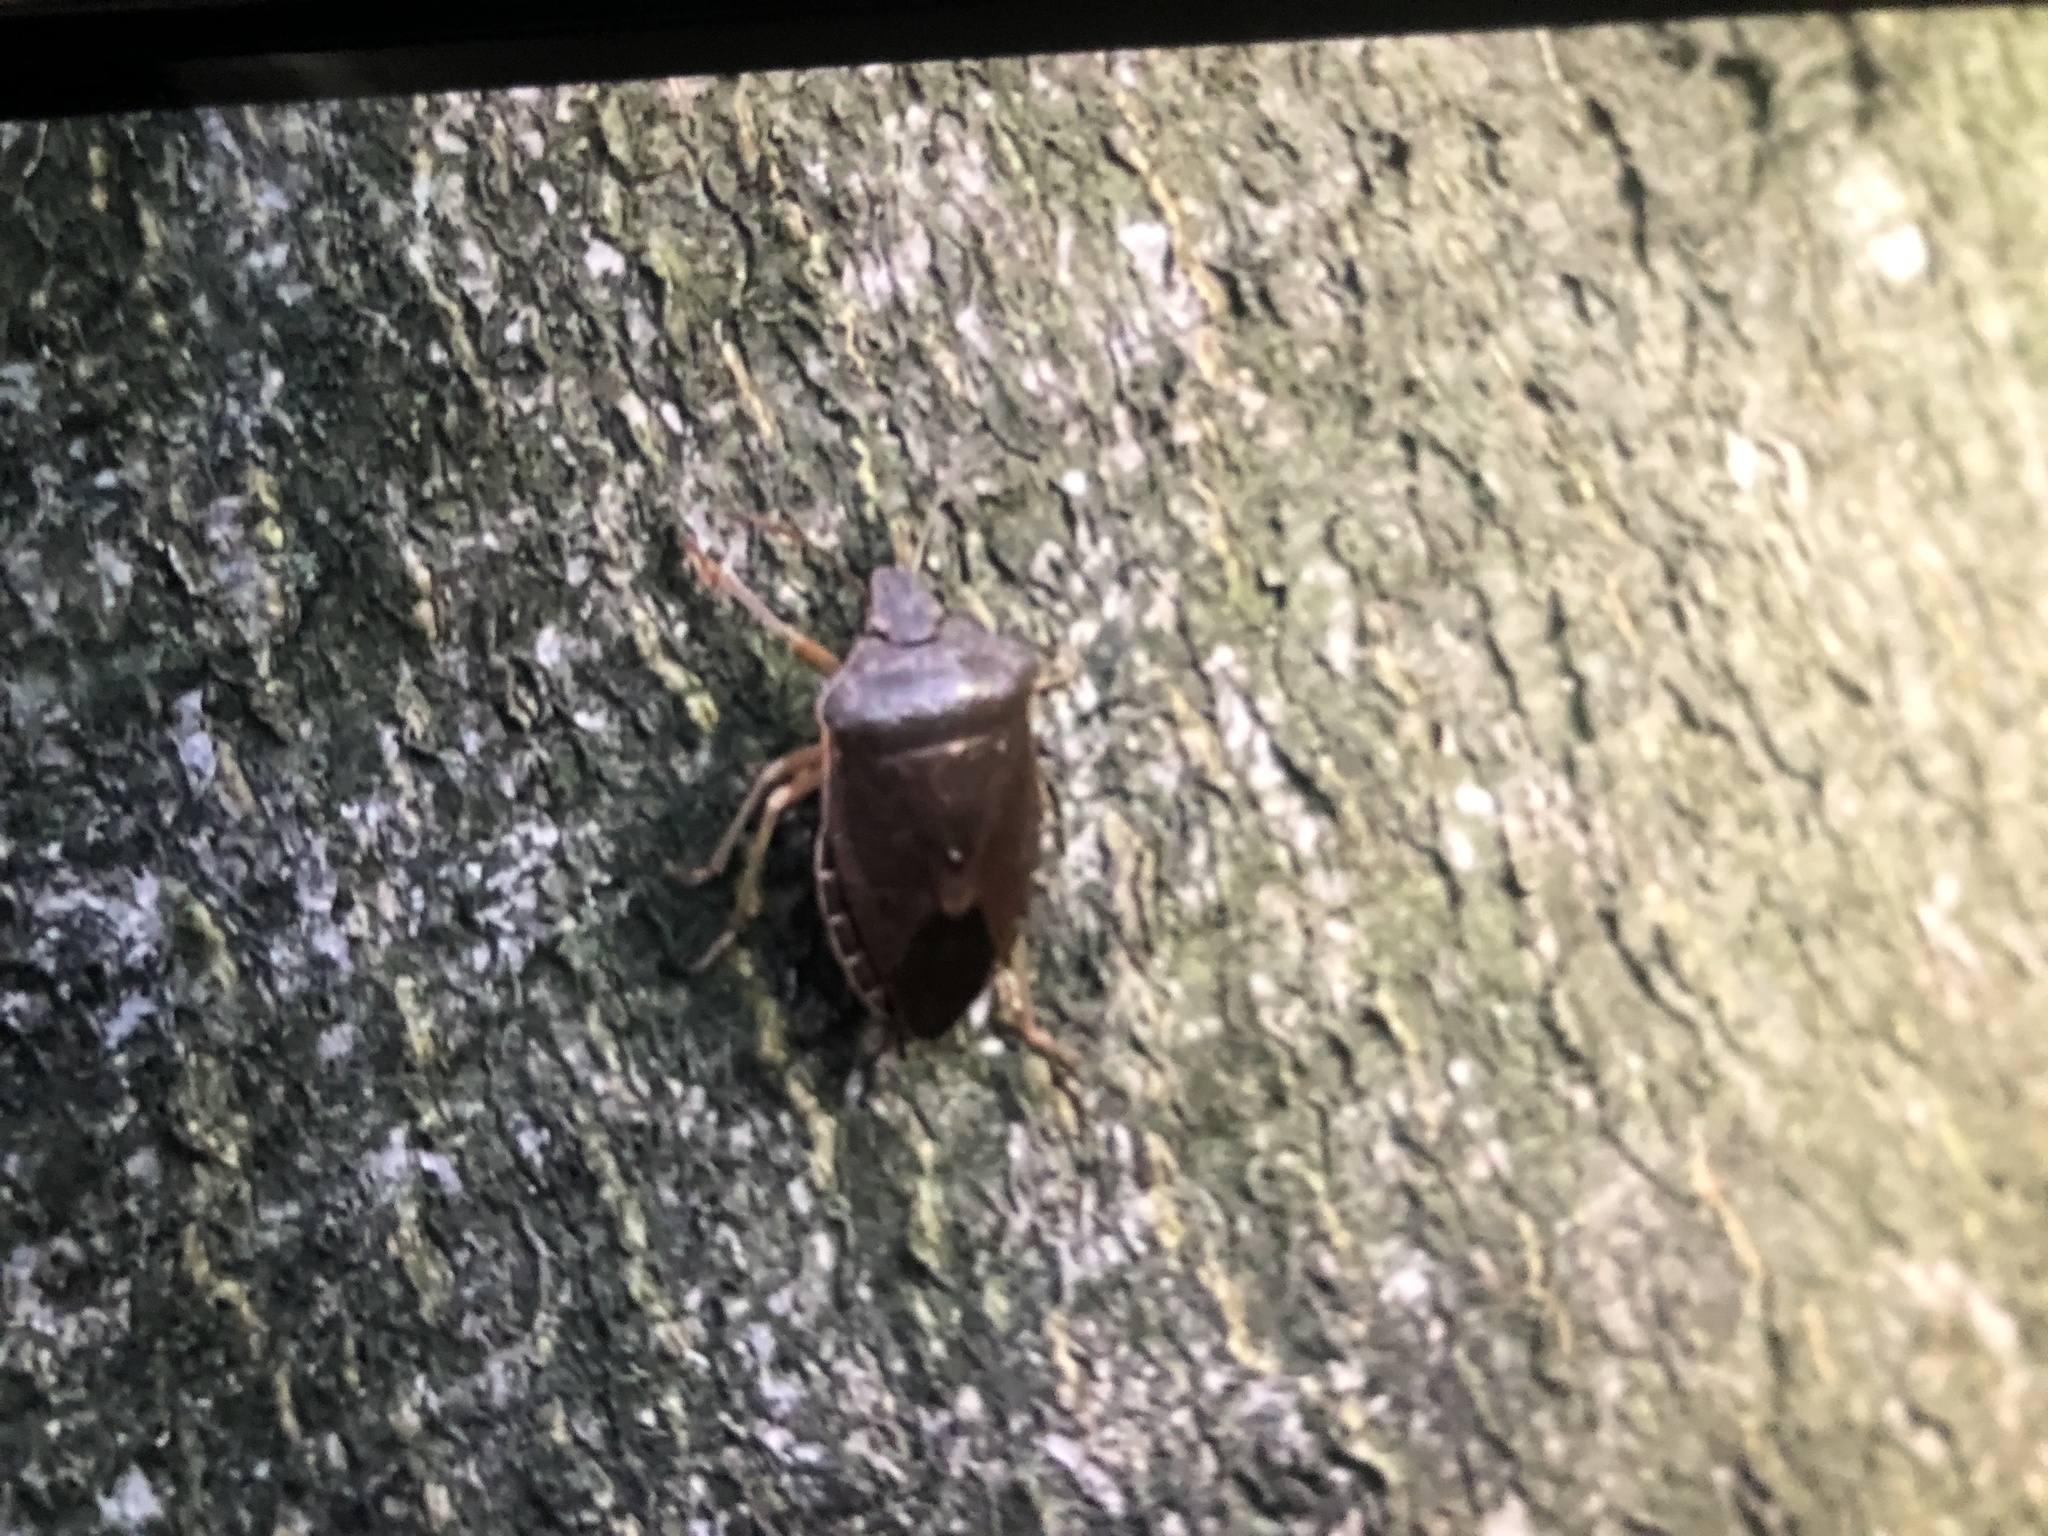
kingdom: Animalia
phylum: Arthropoda
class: Insecta
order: Hemiptera
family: Pentatomidae
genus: Palomena
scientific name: Palomena prasina
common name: Green shieldbug
